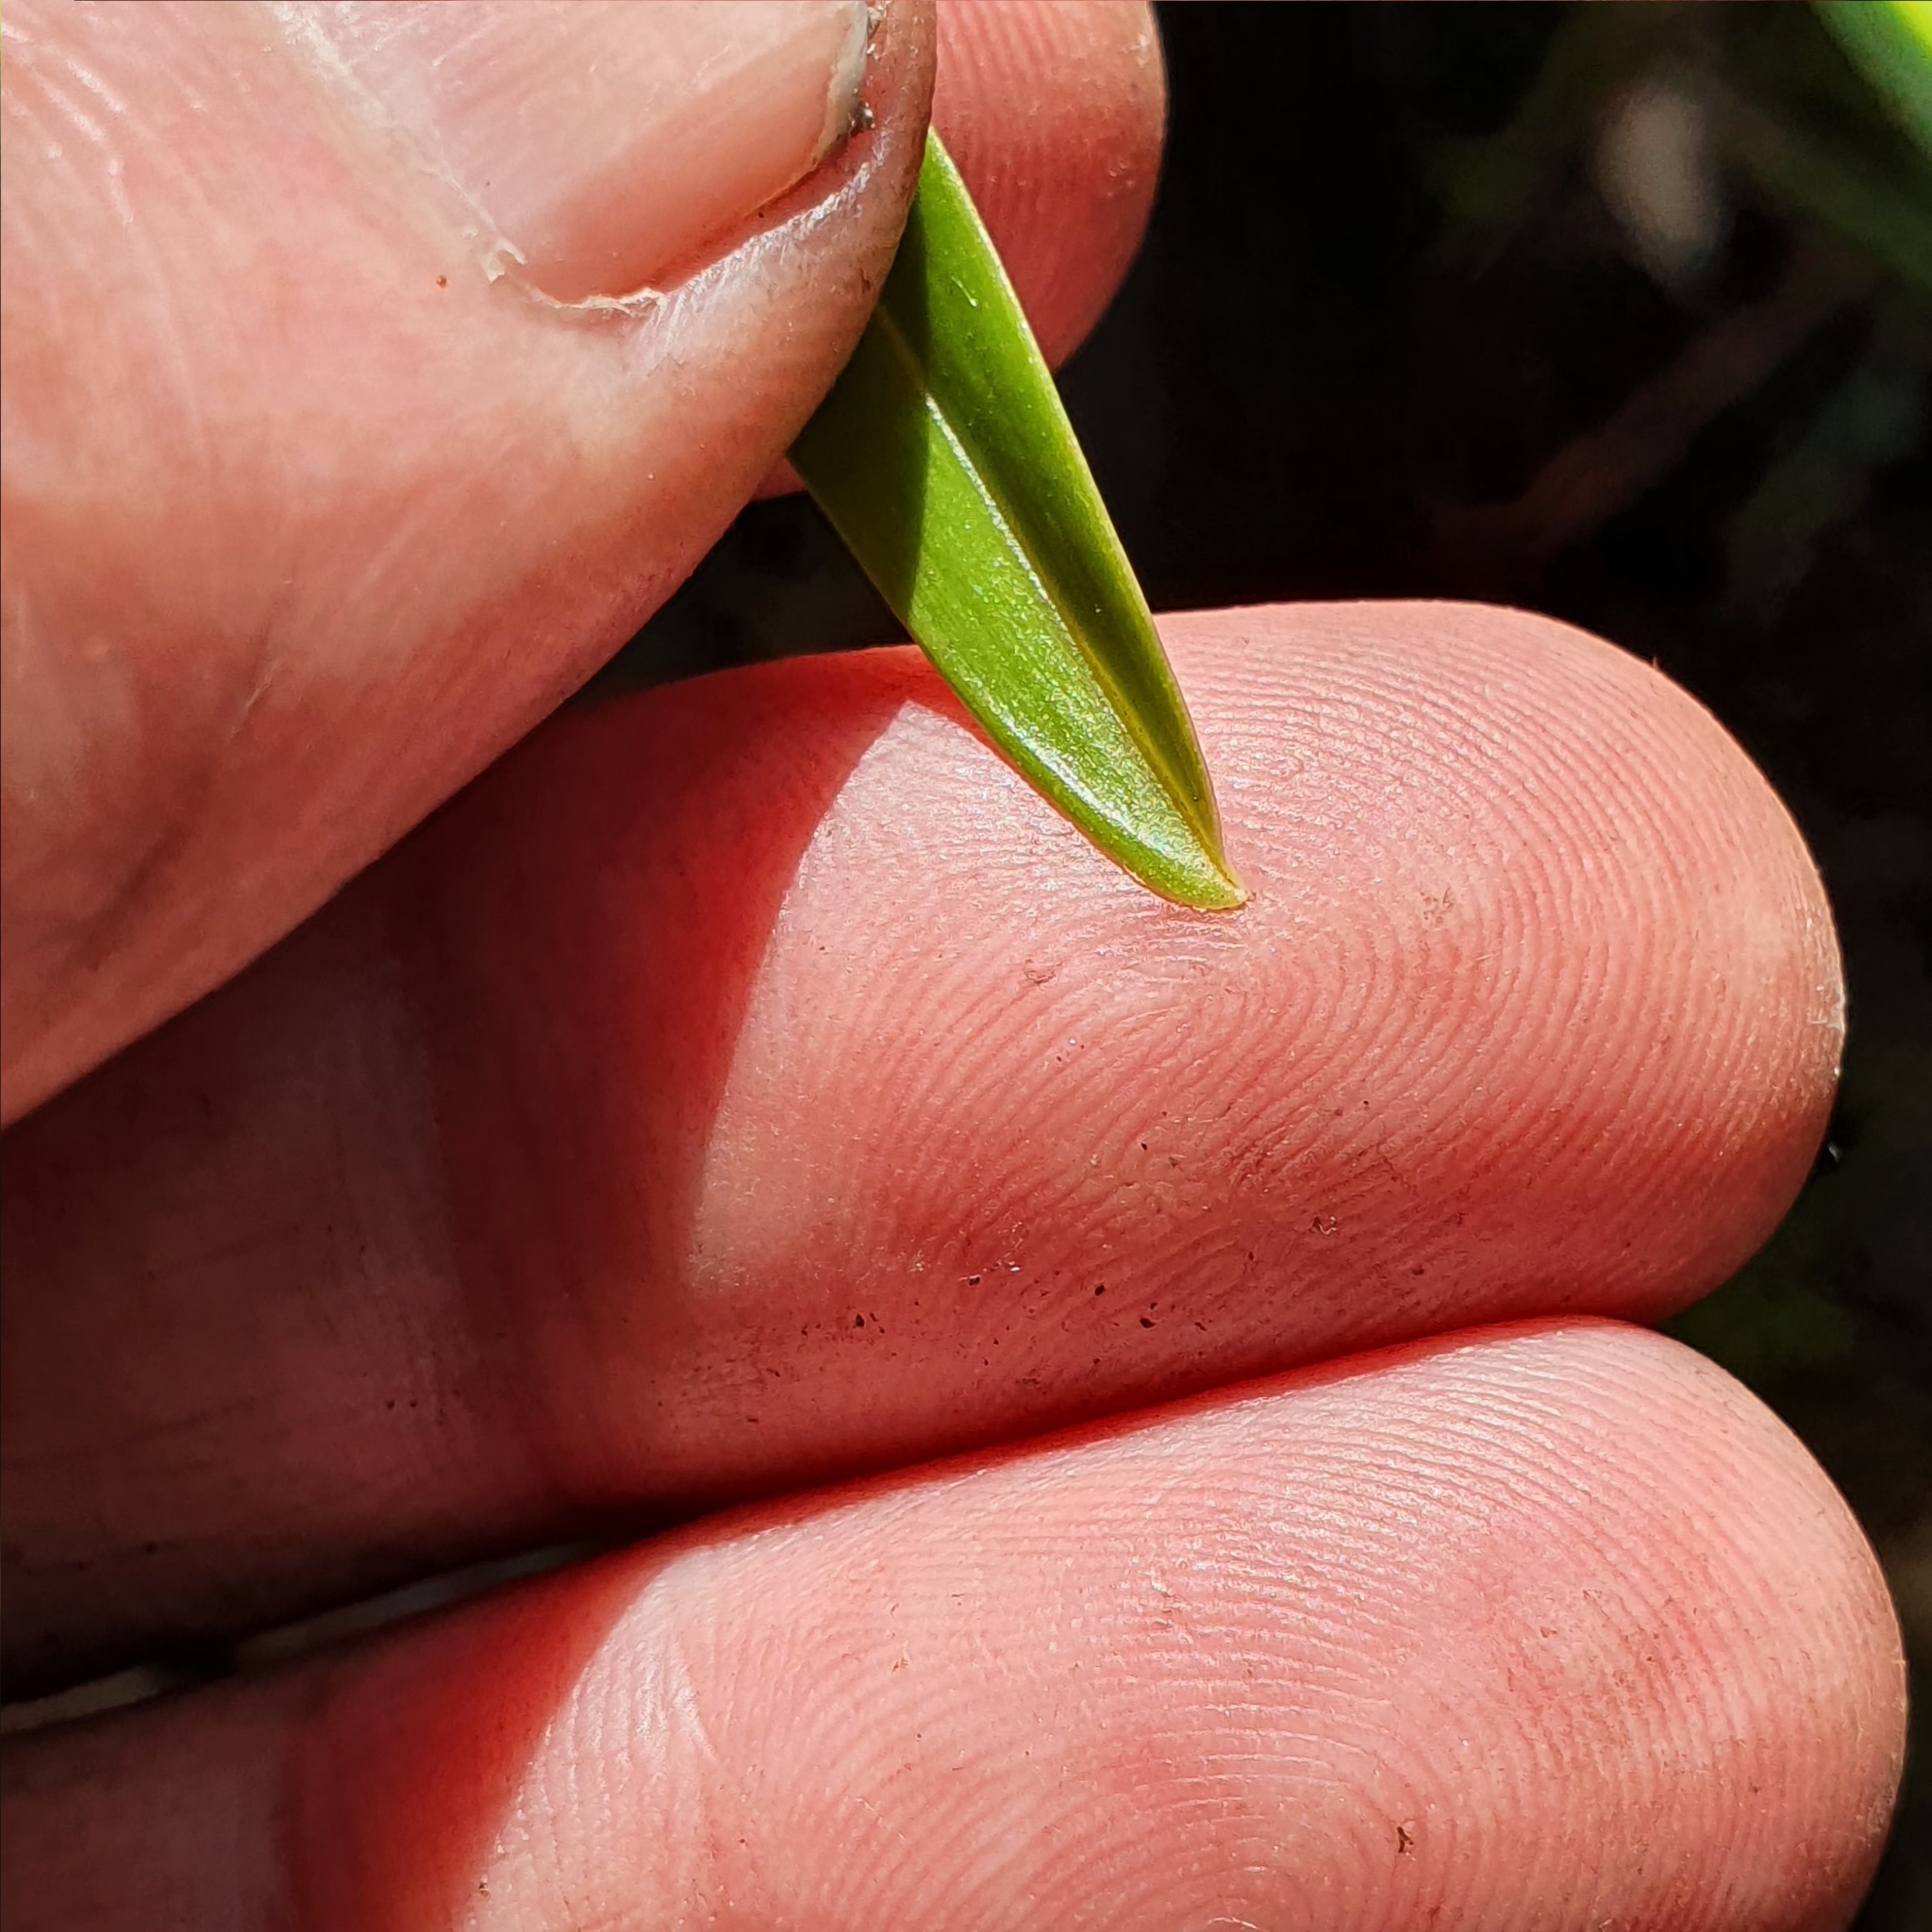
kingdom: Plantae
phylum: Tracheophyta
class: Liliopsida
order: Asparagales
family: Orchidaceae
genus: Cymbidium
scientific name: Cymbidium suave
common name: Snake orchid
